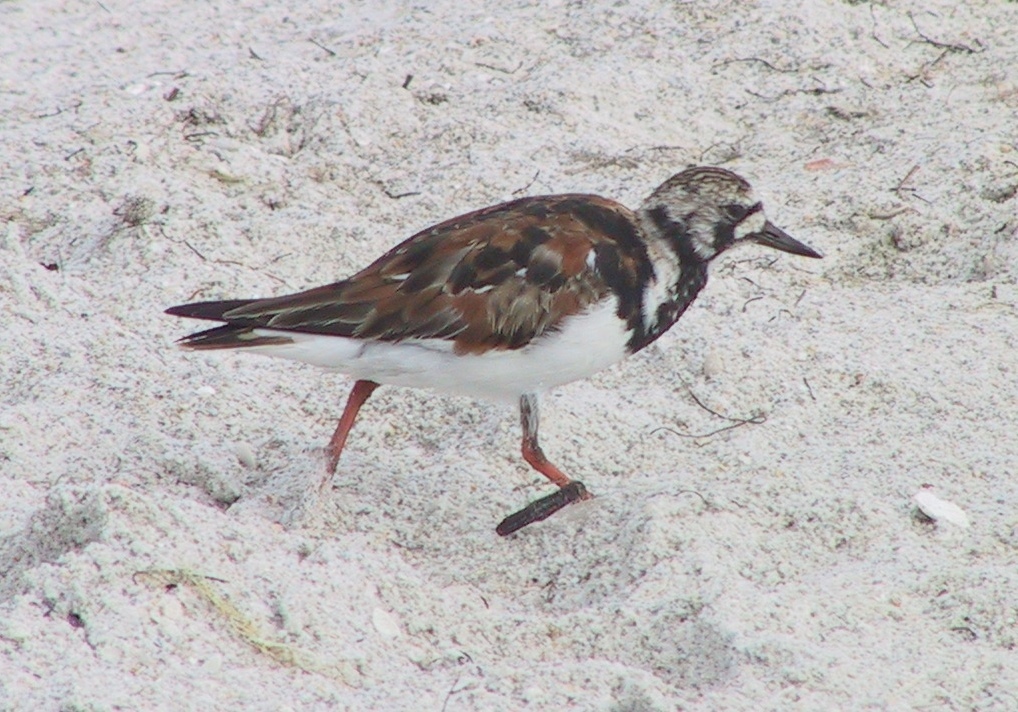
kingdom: Animalia
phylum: Chordata
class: Aves
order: Charadriiformes
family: Scolopacidae
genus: Arenaria
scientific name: Arenaria interpres
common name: Ruddy turnstone
